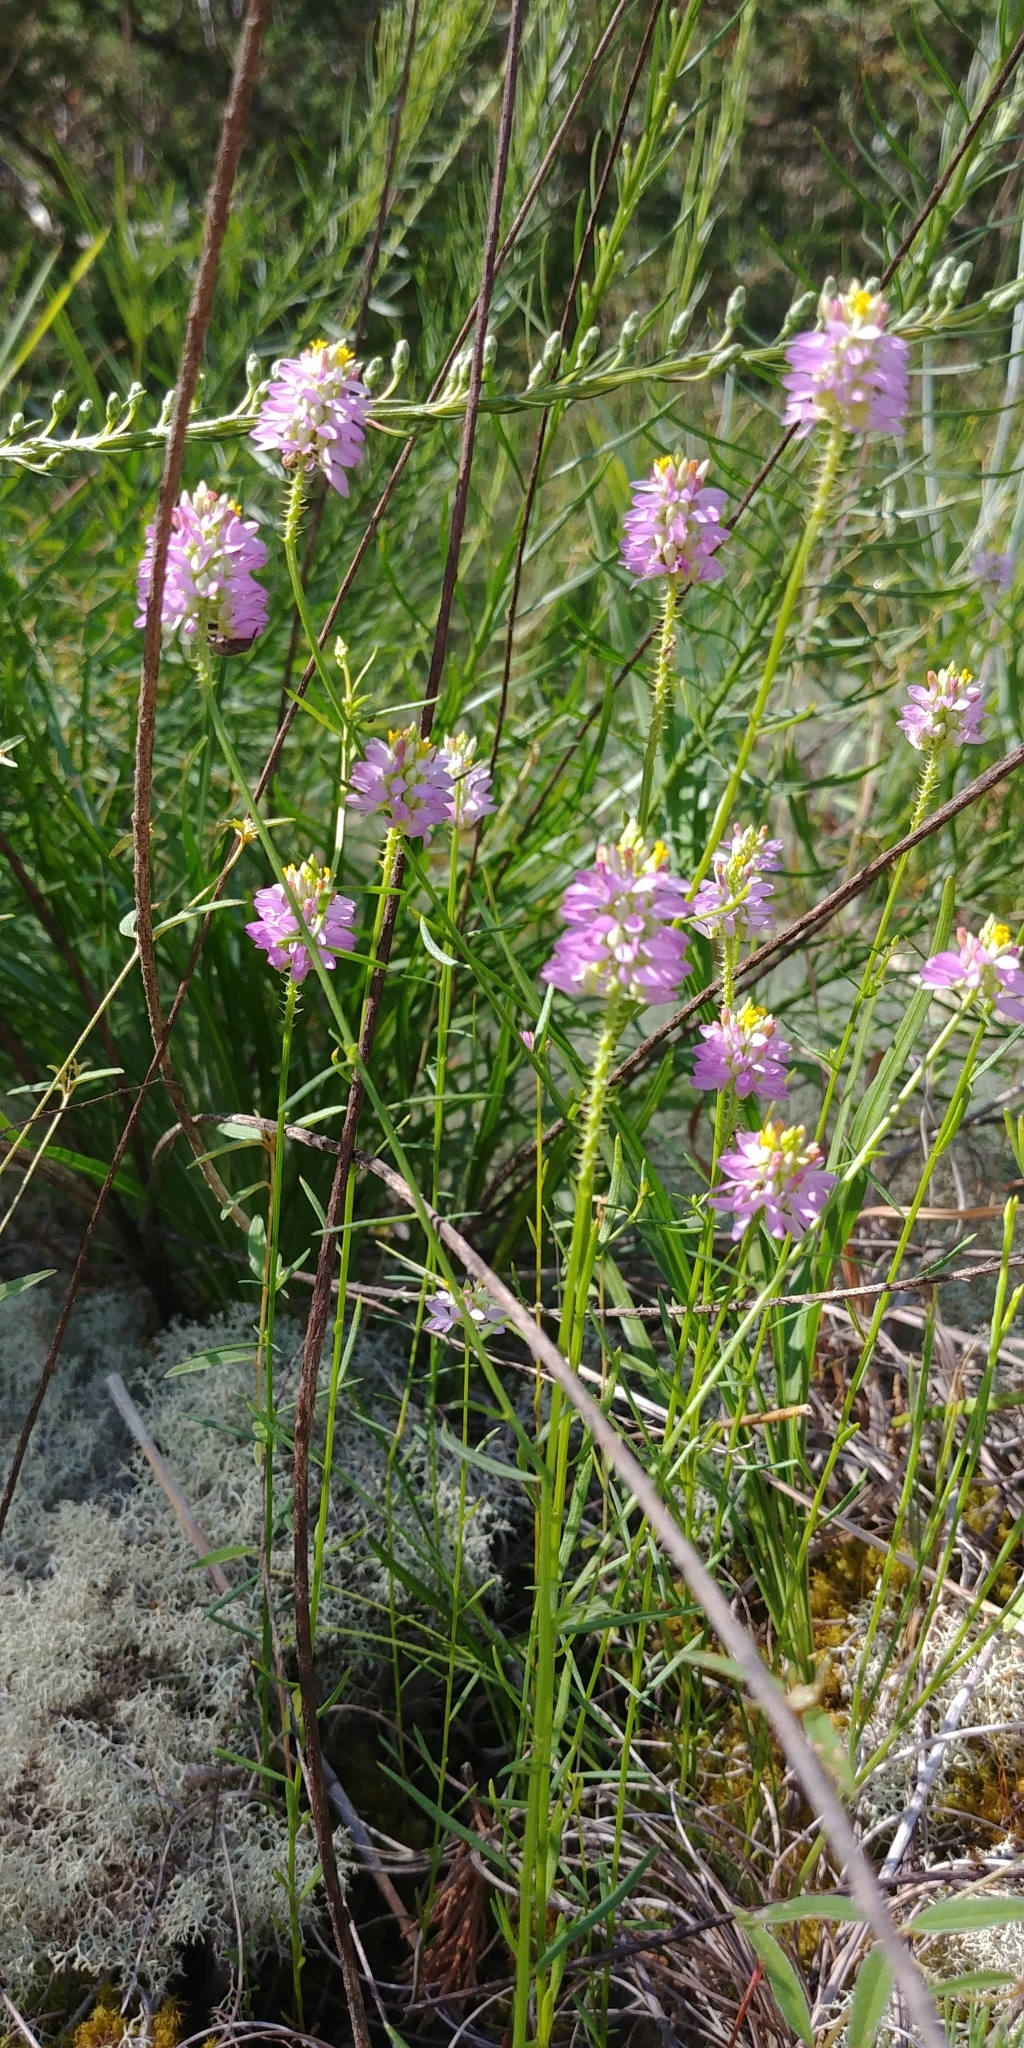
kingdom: Plantae
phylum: Tracheophyta
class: Magnoliopsida
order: Fabales
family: Polygalaceae
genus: Polygala
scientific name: Polygala curtissii
